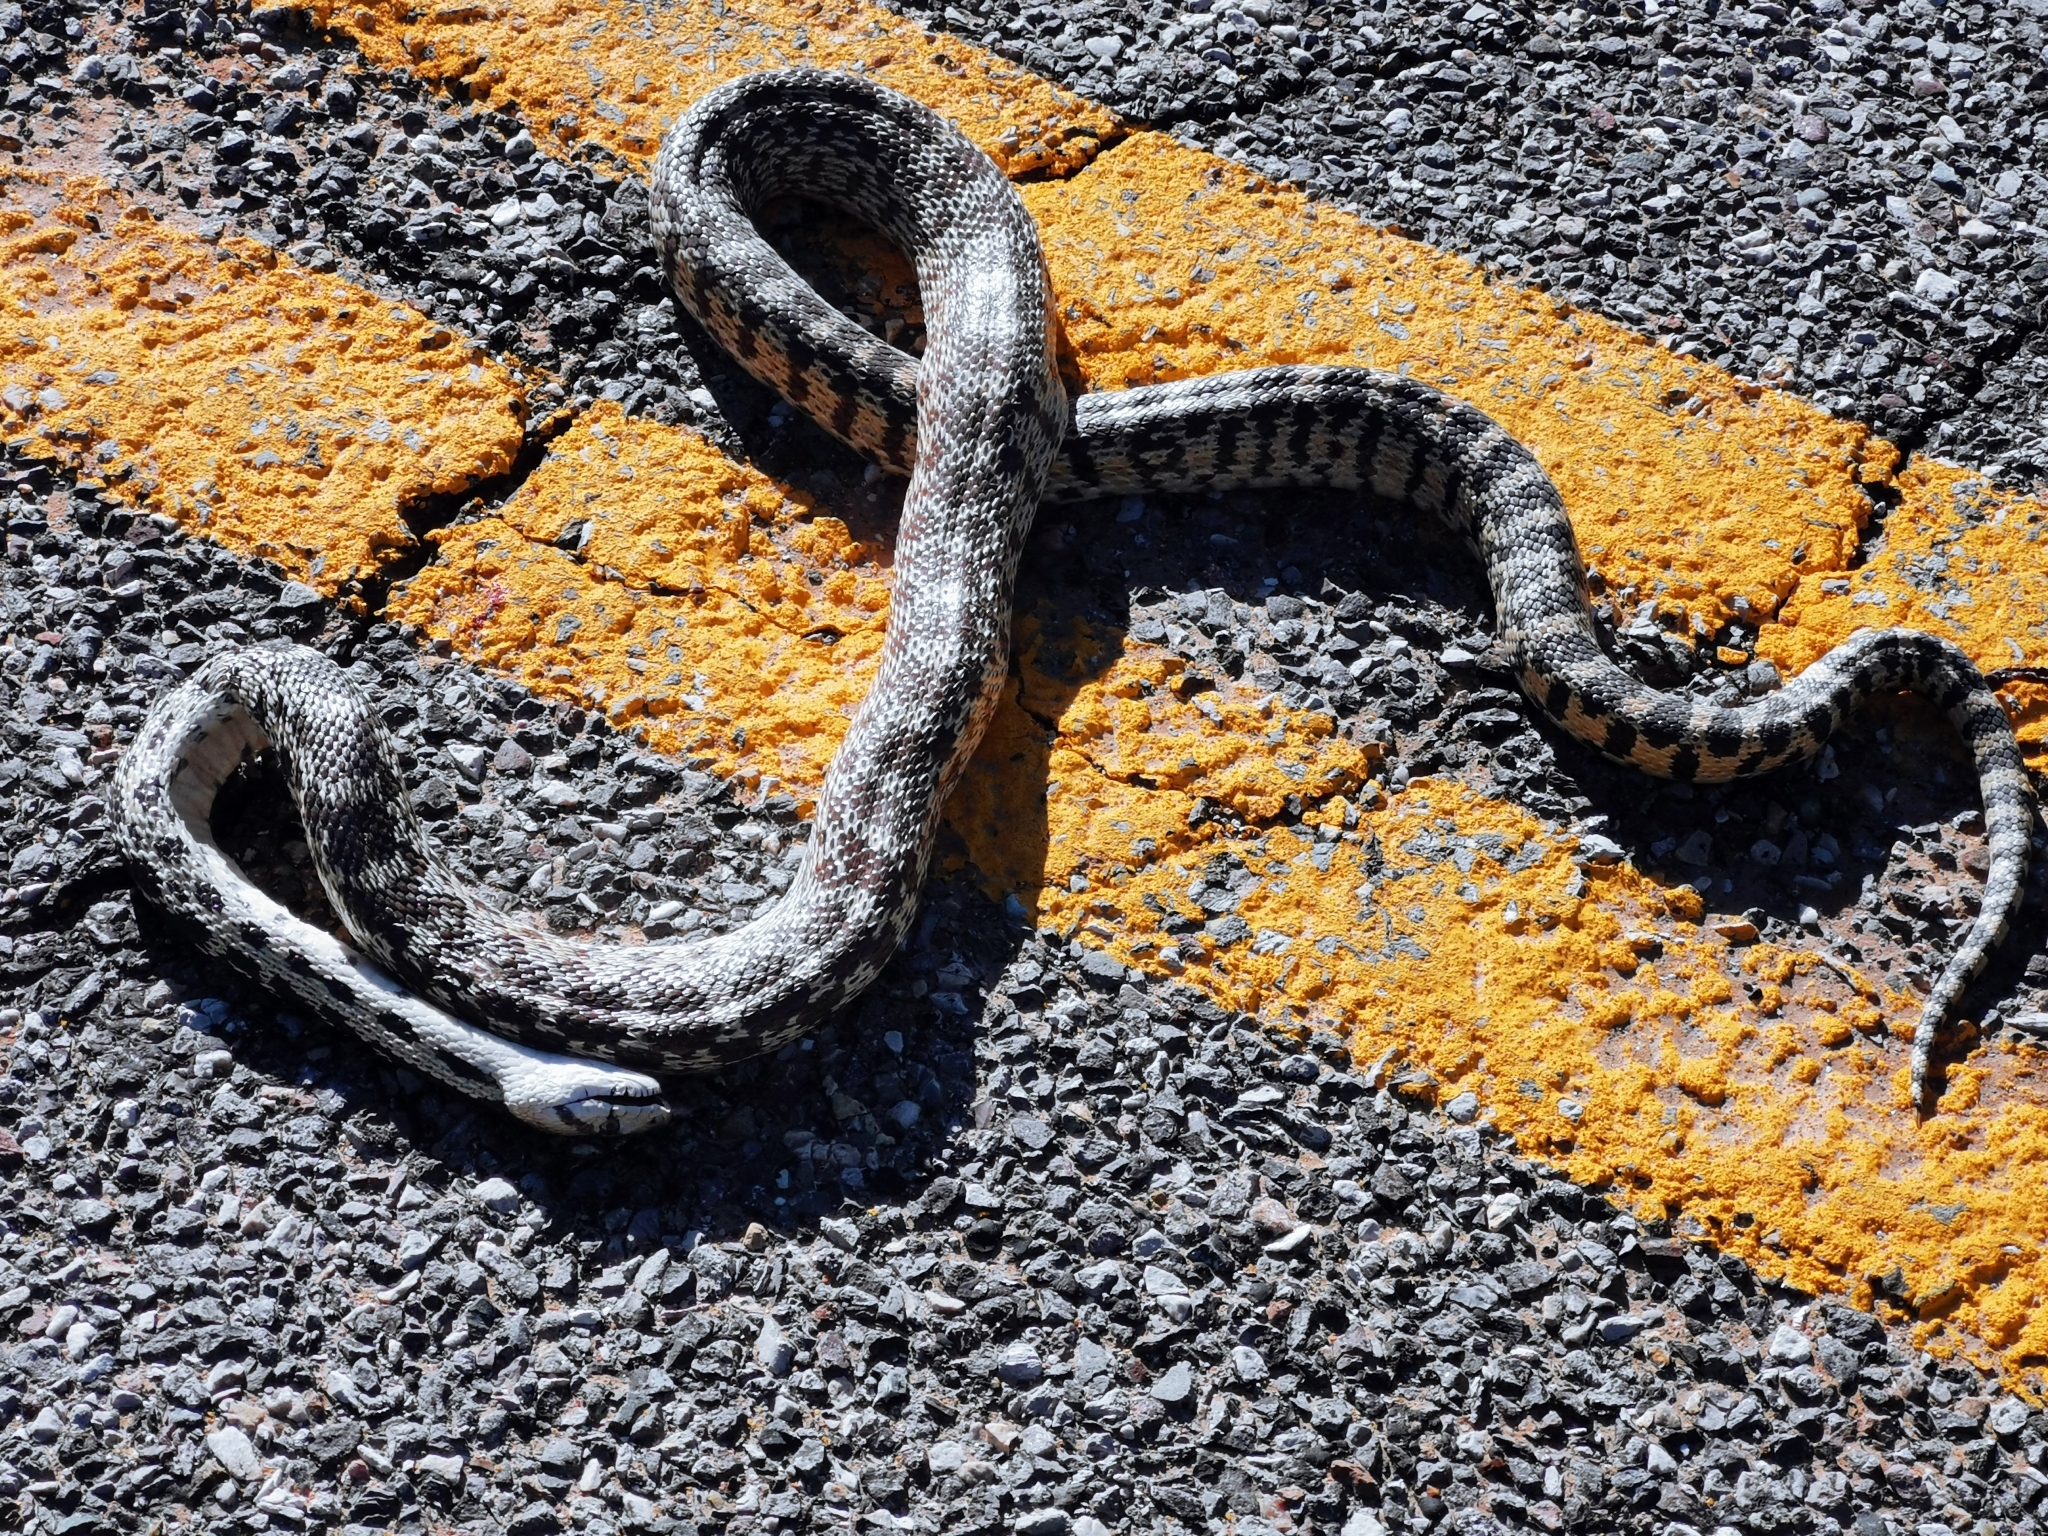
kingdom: Animalia
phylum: Chordata
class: Squamata
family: Colubridae
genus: Pituophis
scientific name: Pituophis catenifer
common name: Gopher snake
